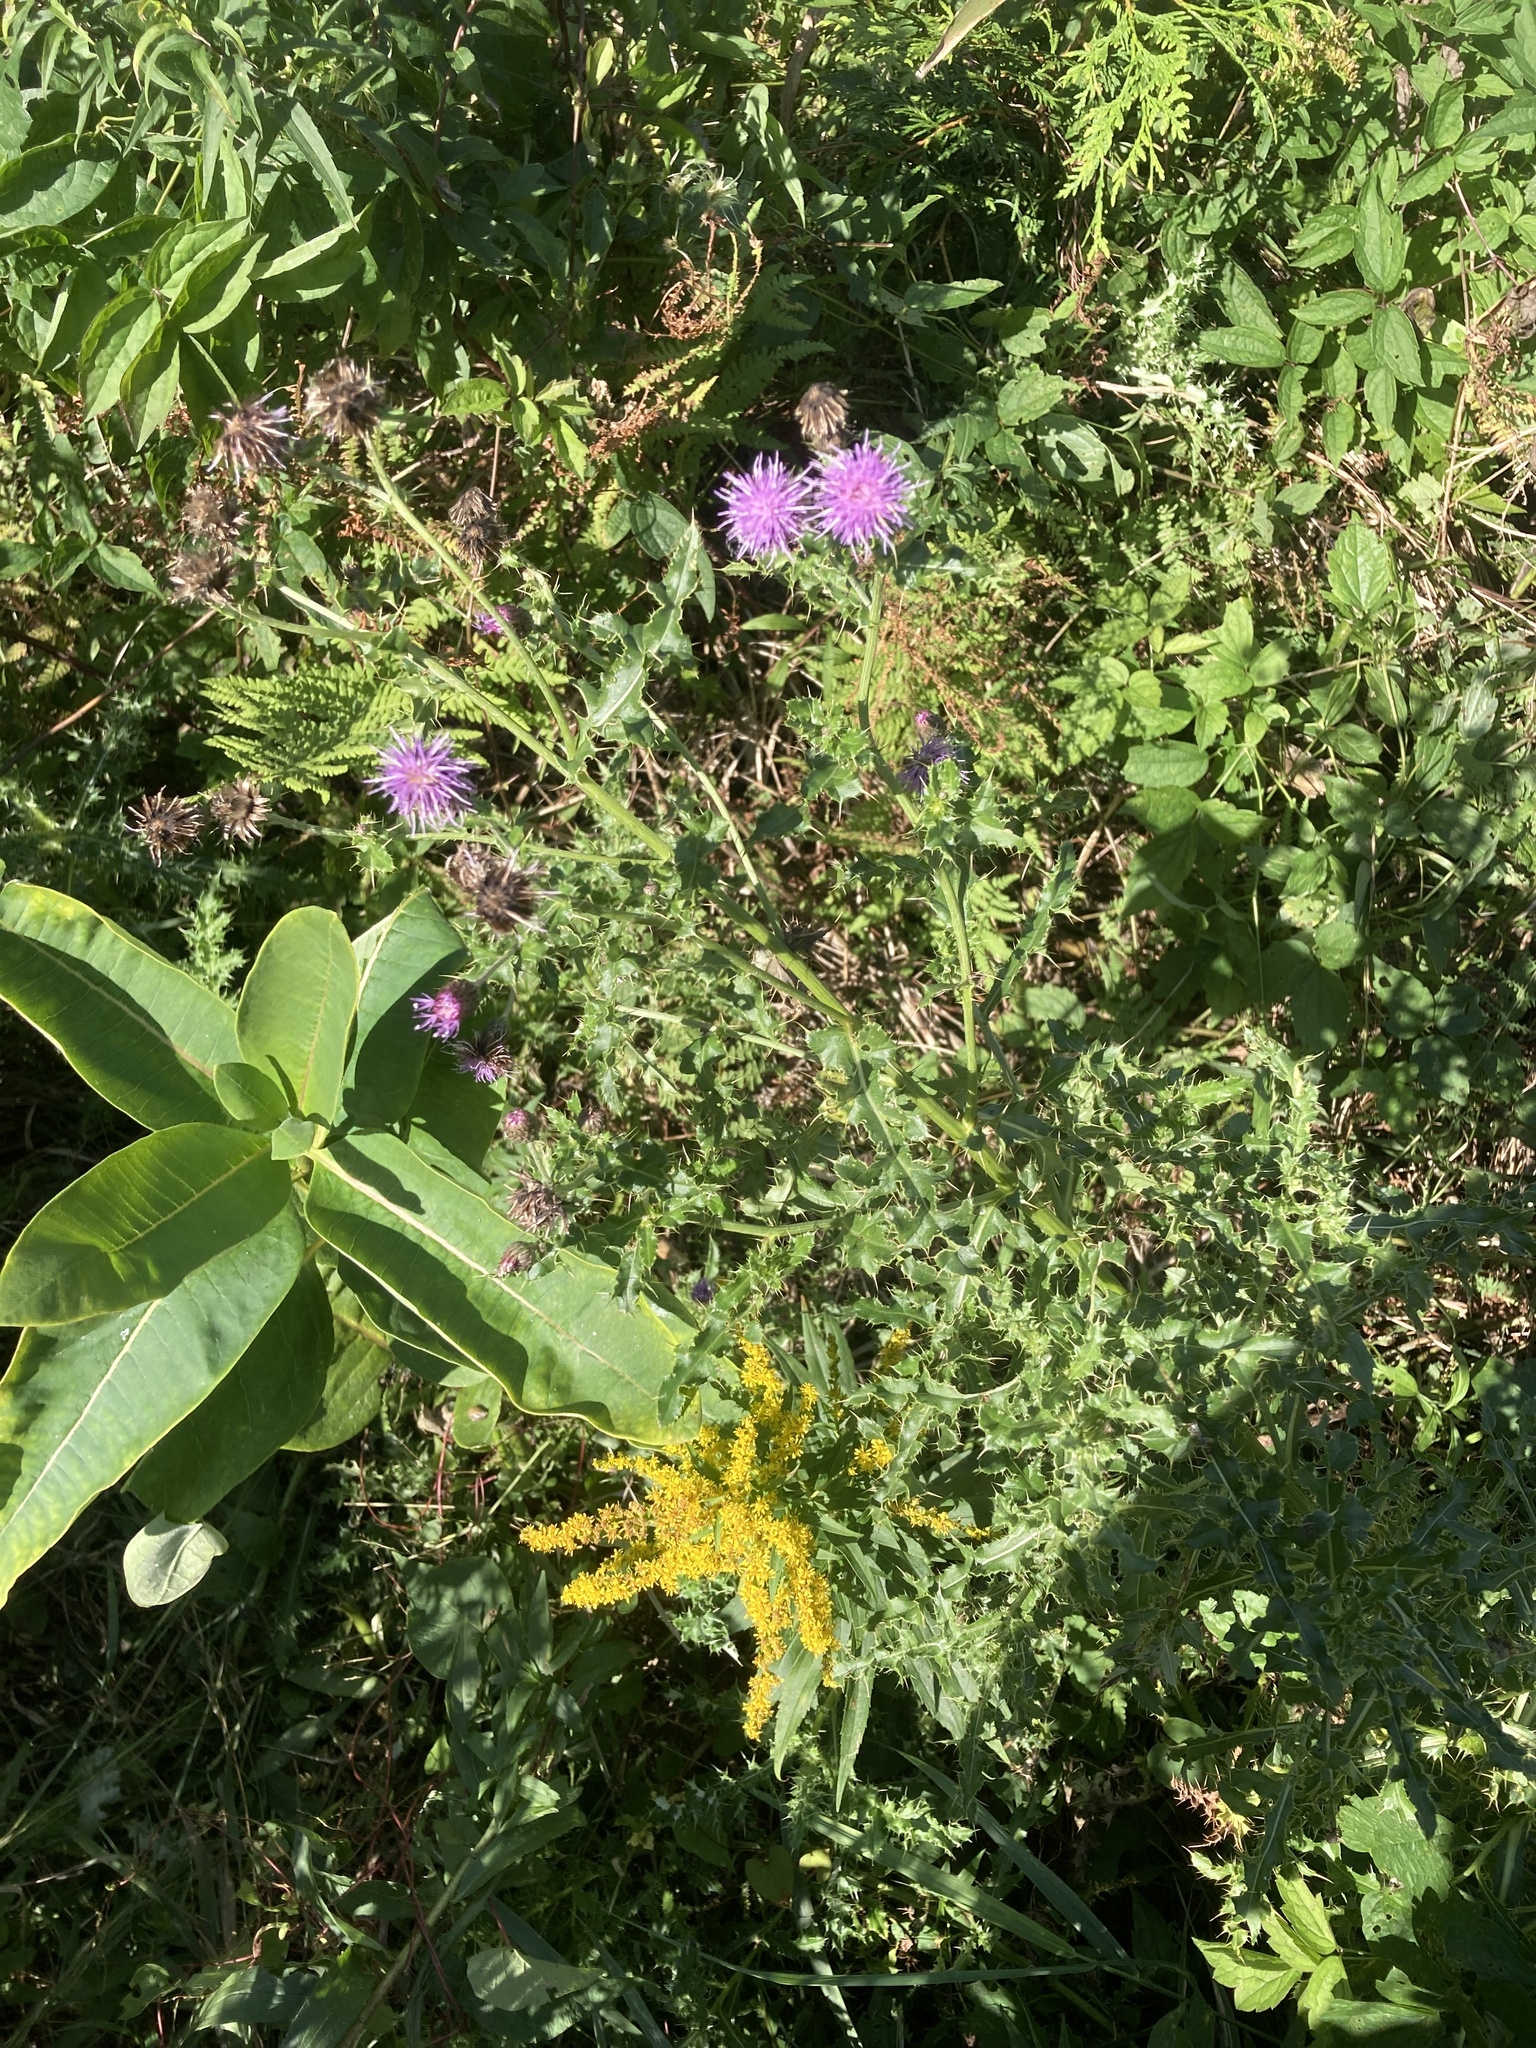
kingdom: Plantae
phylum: Tracheophyta
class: Magnoliopsida
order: Asterales
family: Asteraceae
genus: Cirsium
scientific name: Cirsium arvense
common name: Creeping thistle
